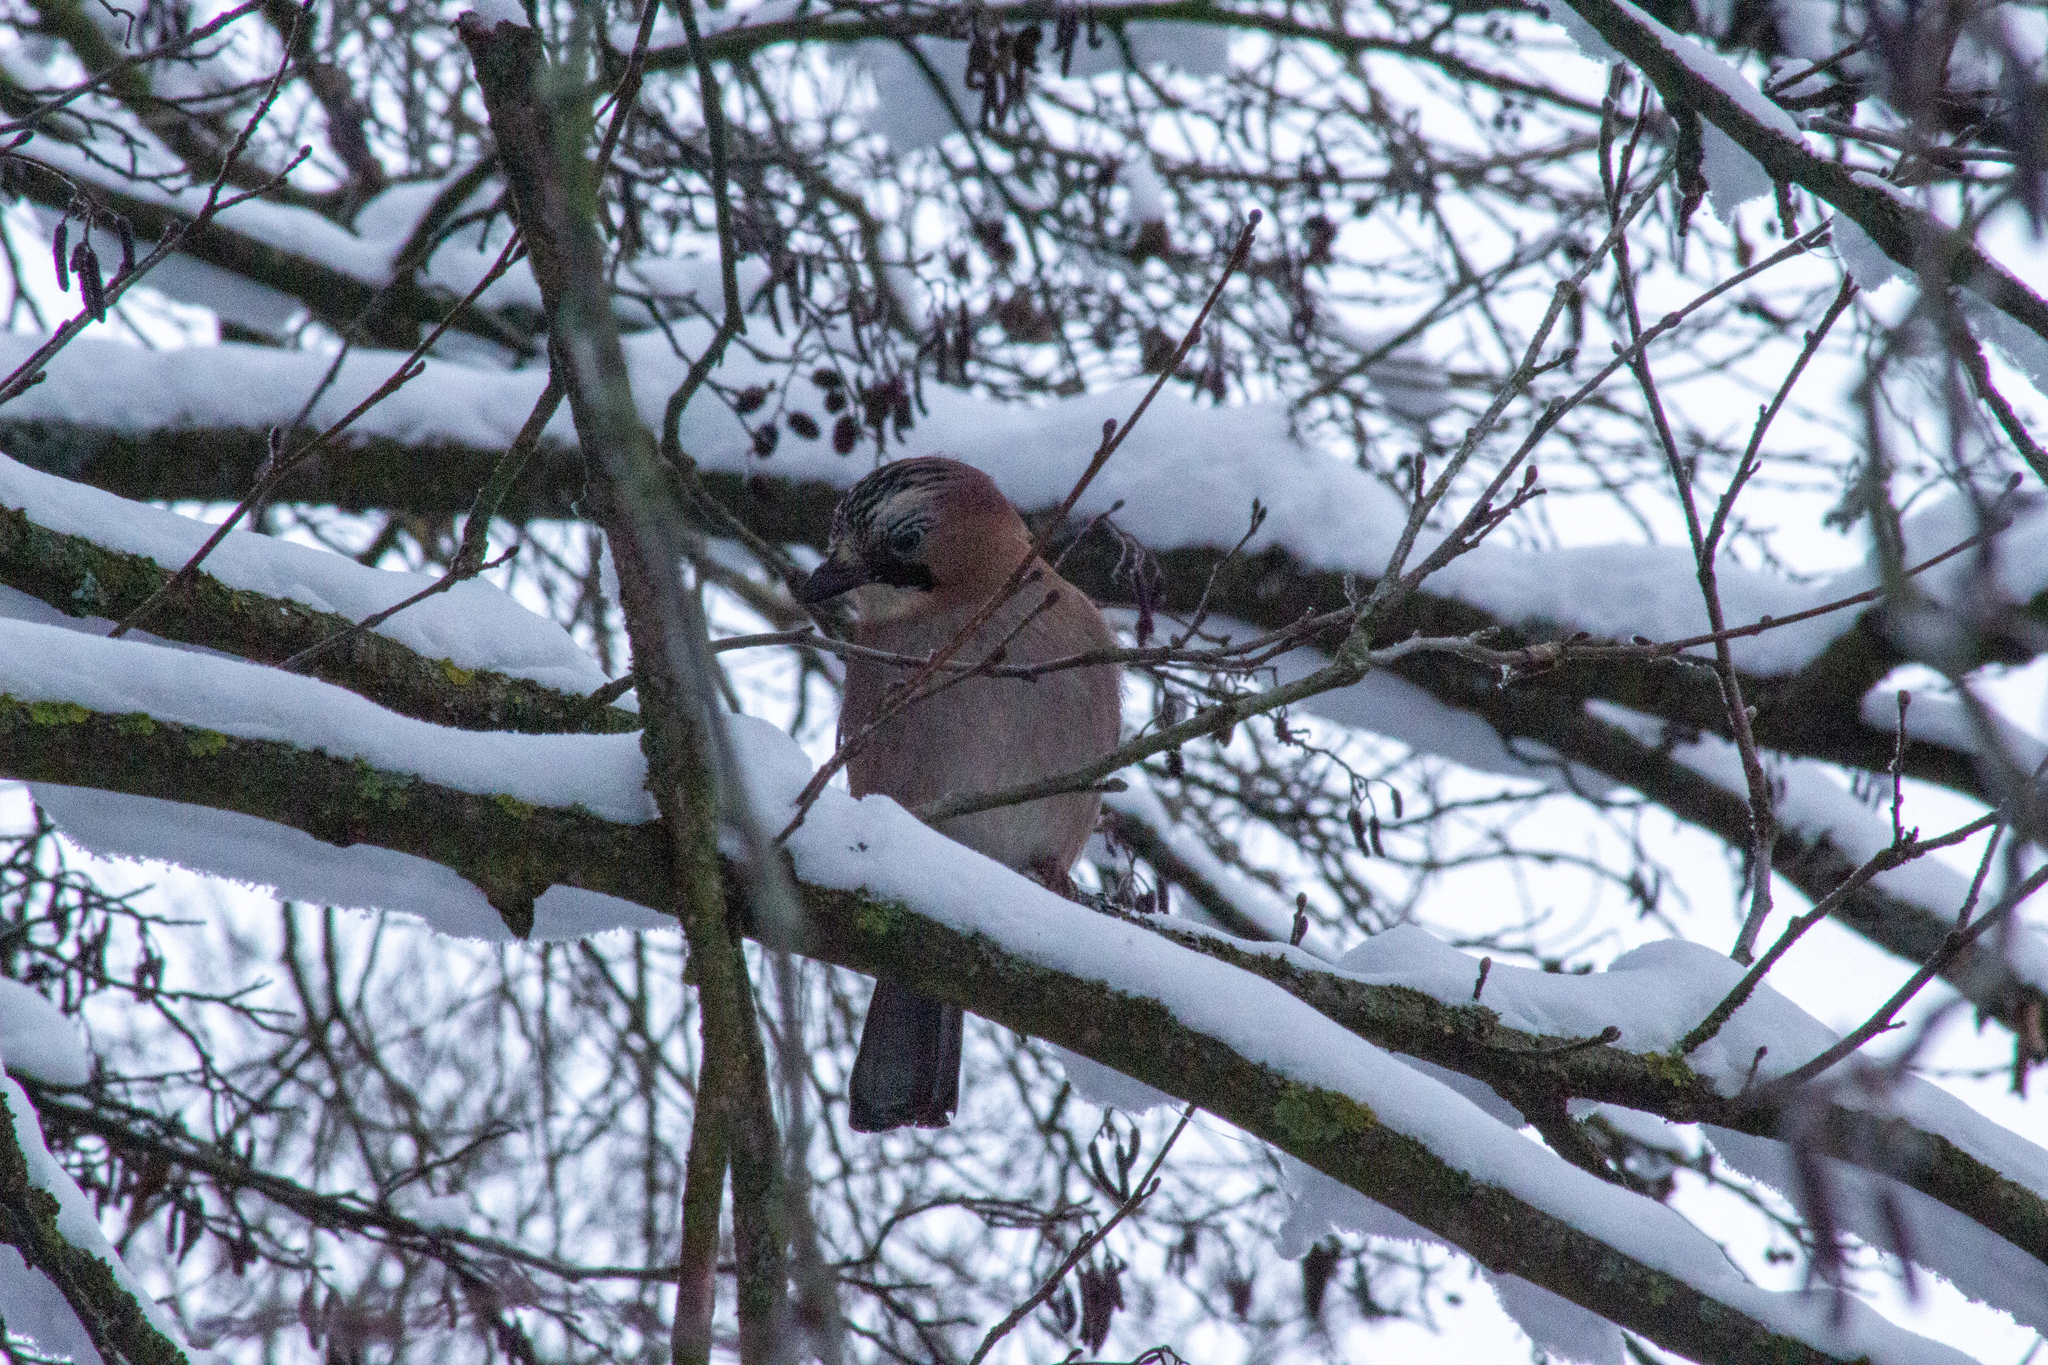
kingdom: Animalia
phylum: Chordata
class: Aves
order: Passeriformes
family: Corvidae
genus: Garrulus
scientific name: Garrulus glandarius
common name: Eurasian jay
